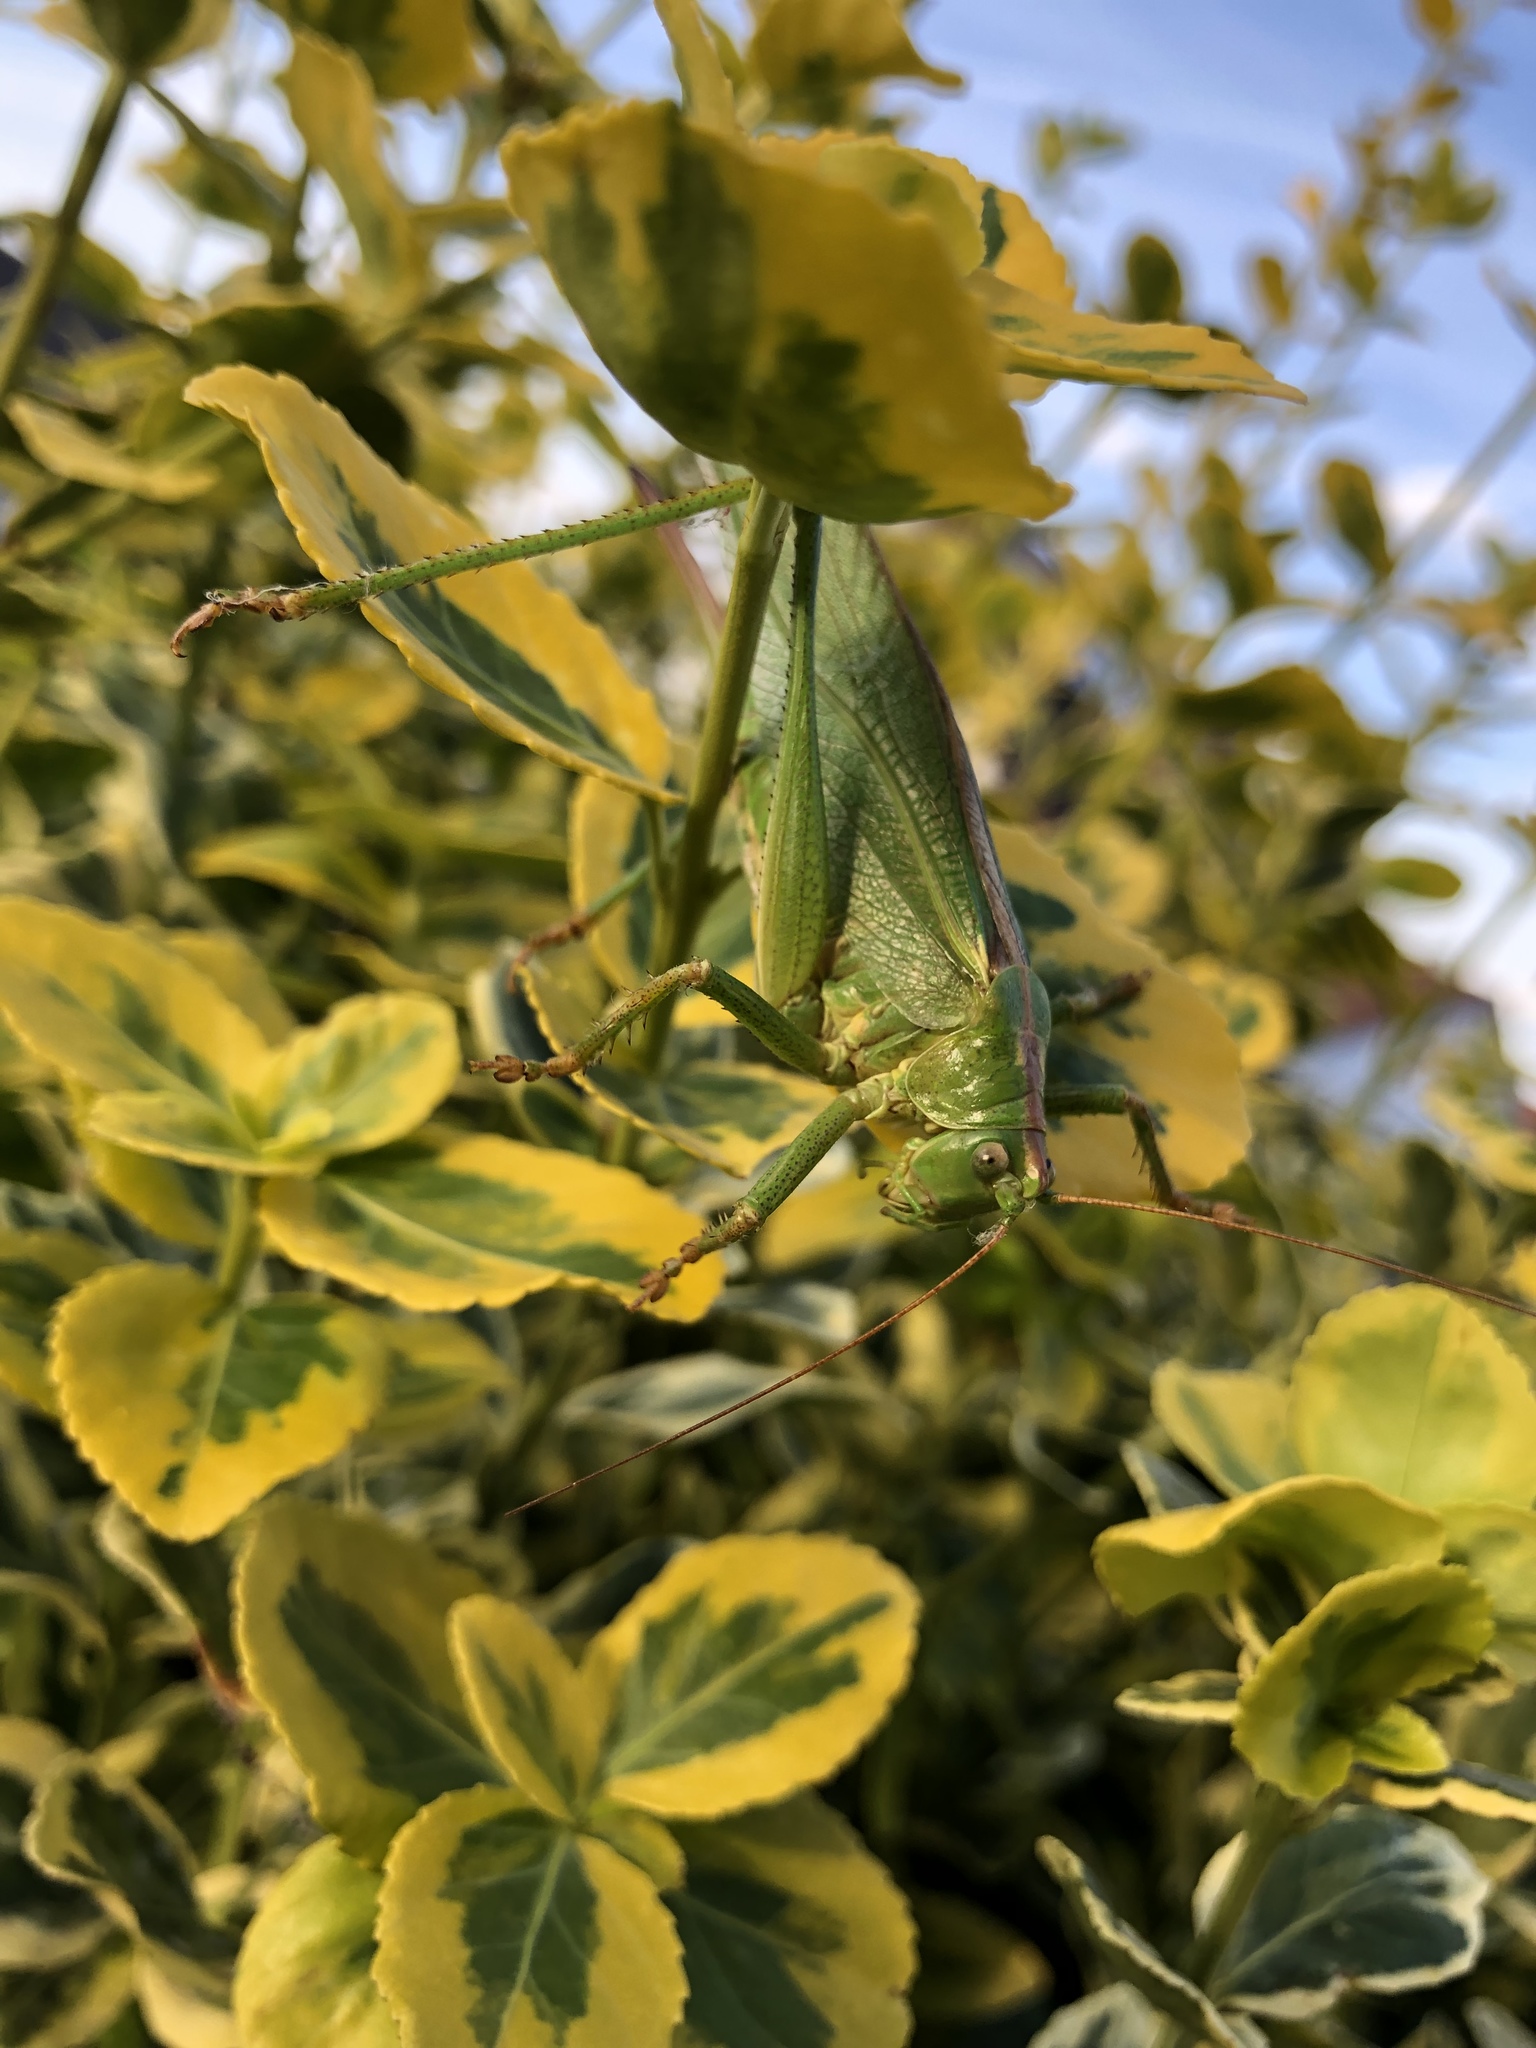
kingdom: Animalia
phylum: Arthropoda
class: Insecta
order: Orthoptera
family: Tettigoniidae
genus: Tettigonia
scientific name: Tettigonia viridissima
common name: Great green bush-cricket
